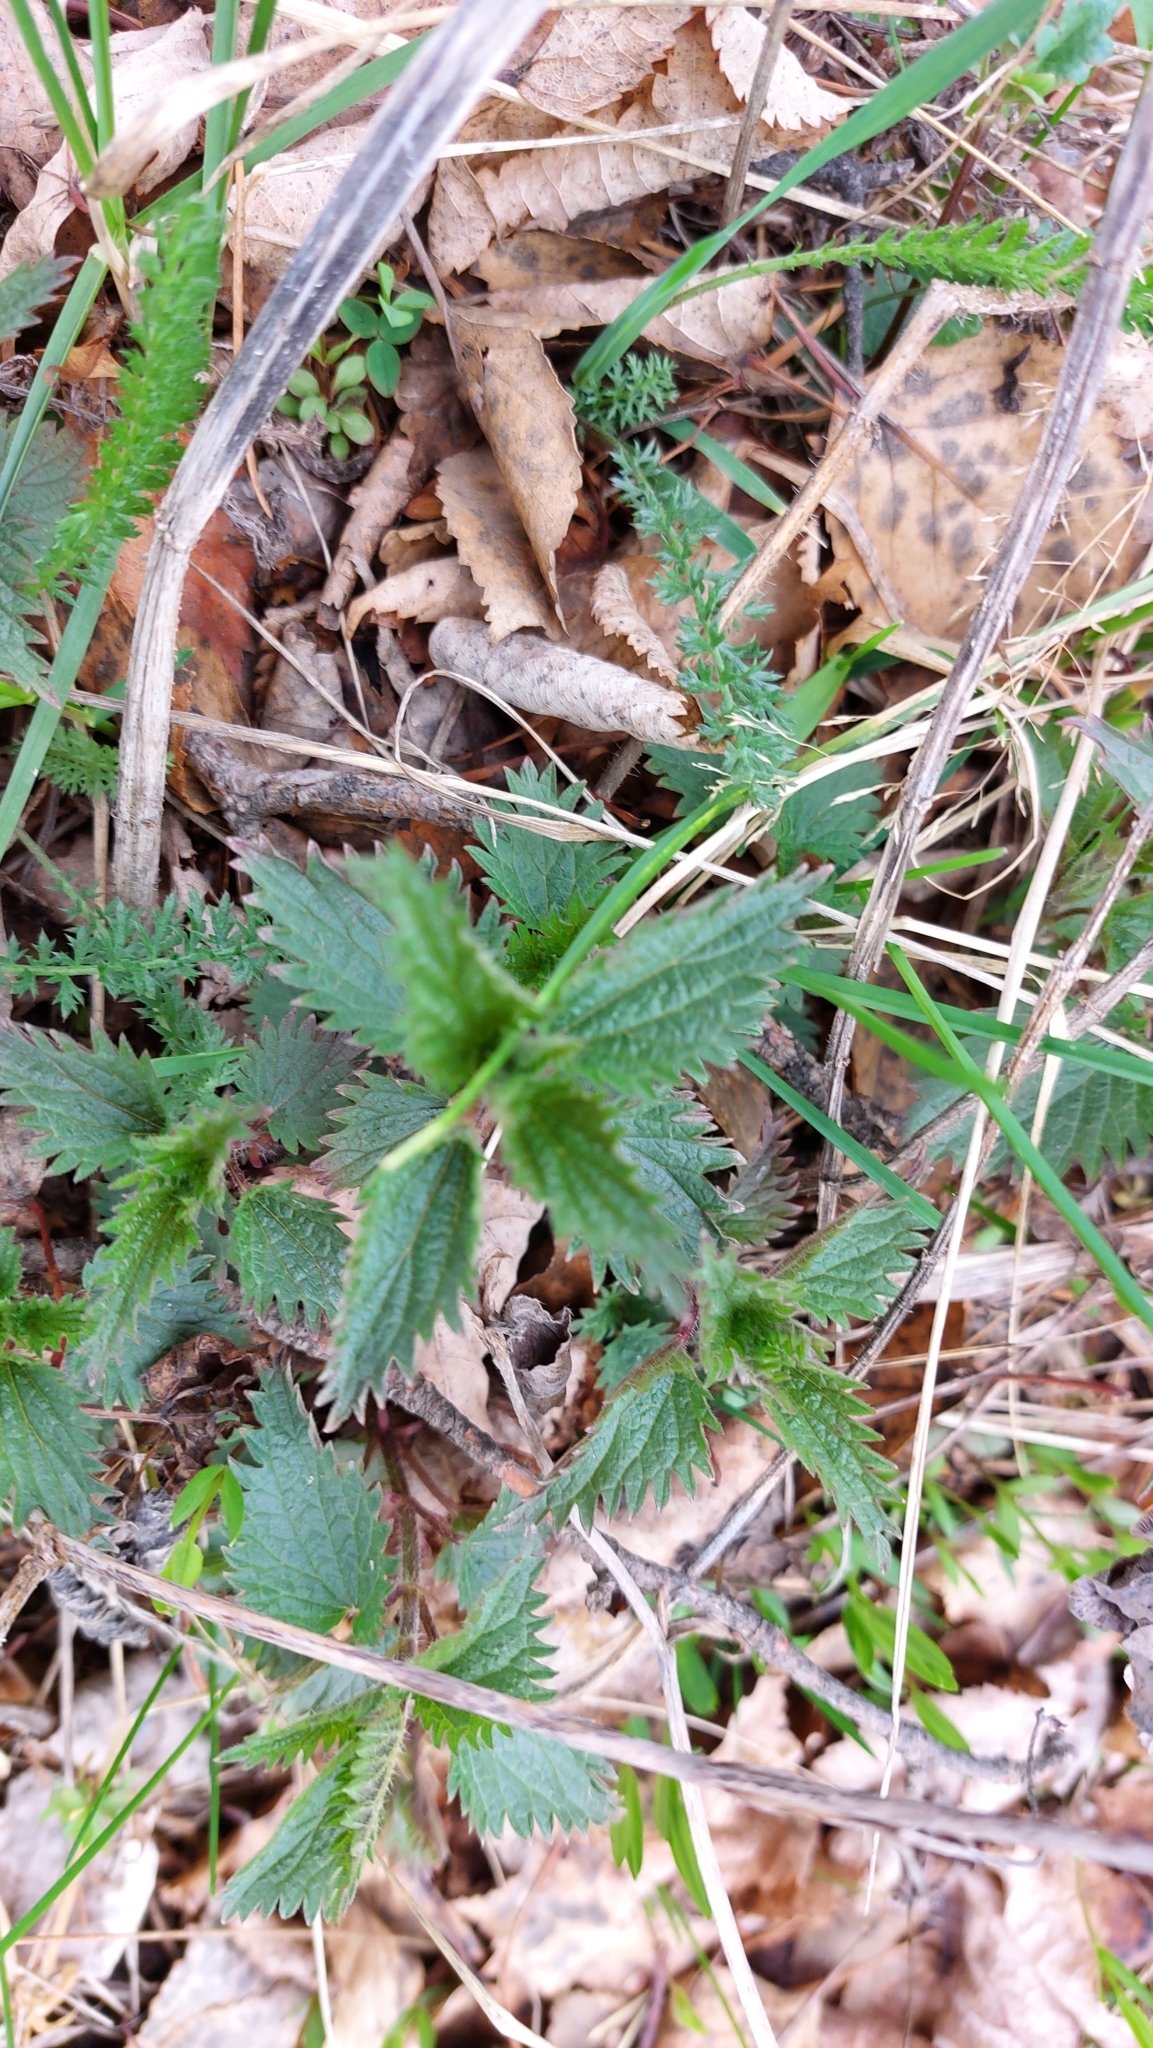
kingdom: Plantae
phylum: Tracheophyta
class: Magnoliopsida
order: Rosales
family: Urticaceae
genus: Urtica
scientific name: Urtica dioica
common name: Common nettle
